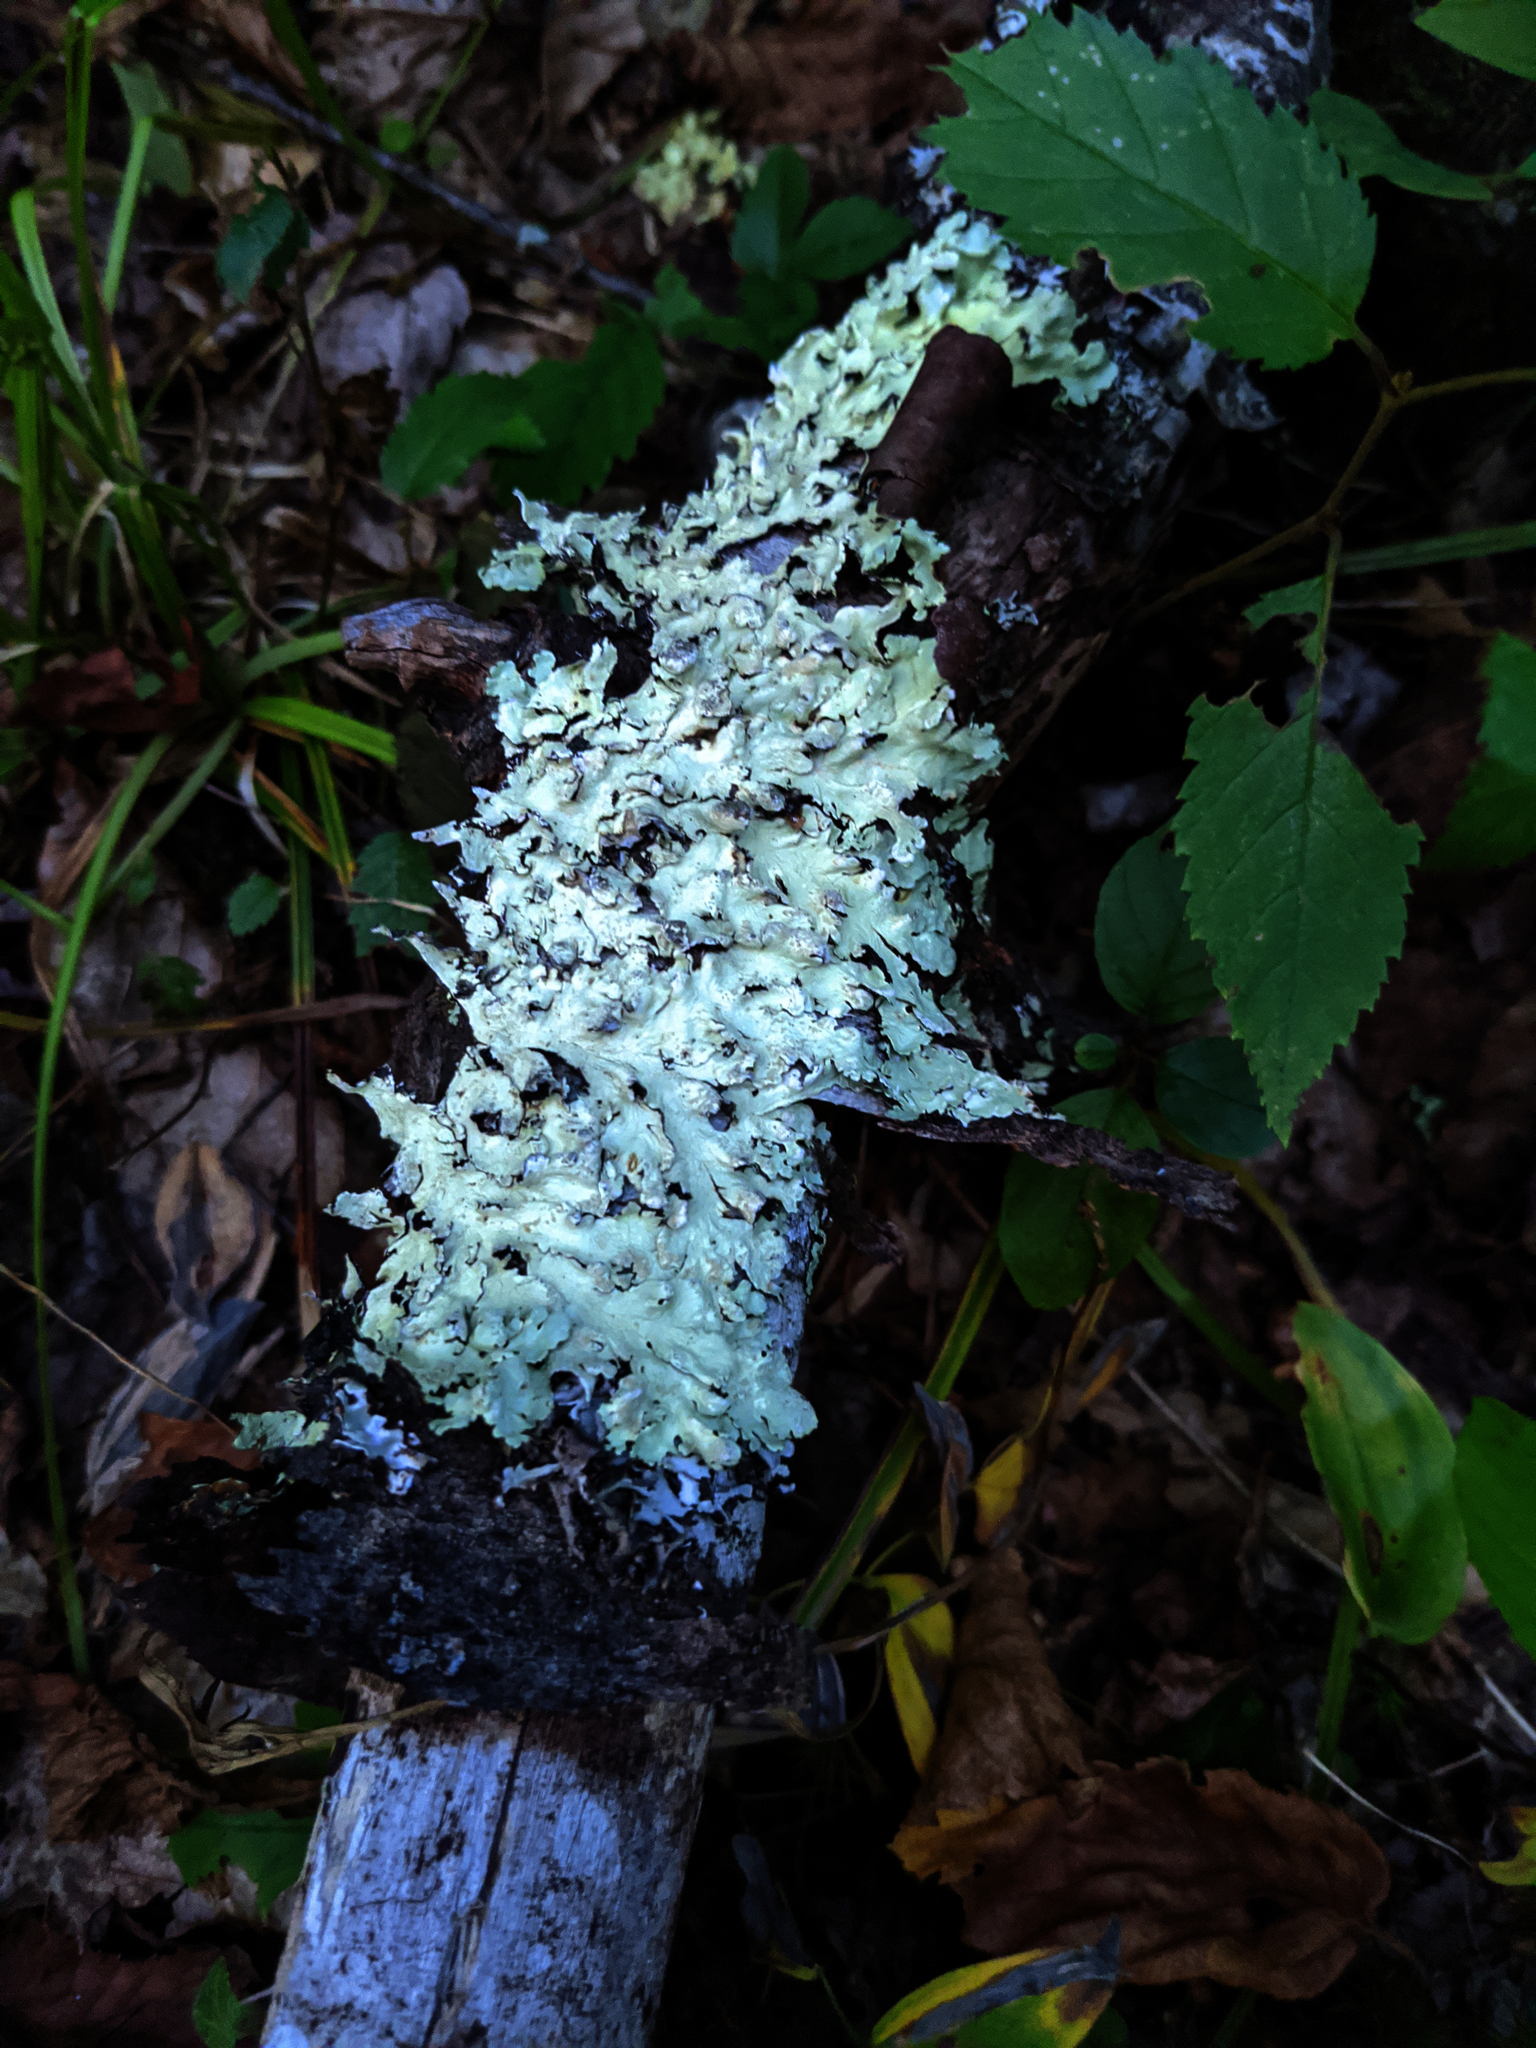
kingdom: Fungi
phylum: Ascomycota
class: Lecanoromycetes
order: Lecanorales
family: Parmeliaceae
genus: Flavoparmelia
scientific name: Flavoparmelia caperata
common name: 40-mile per hour lichen
